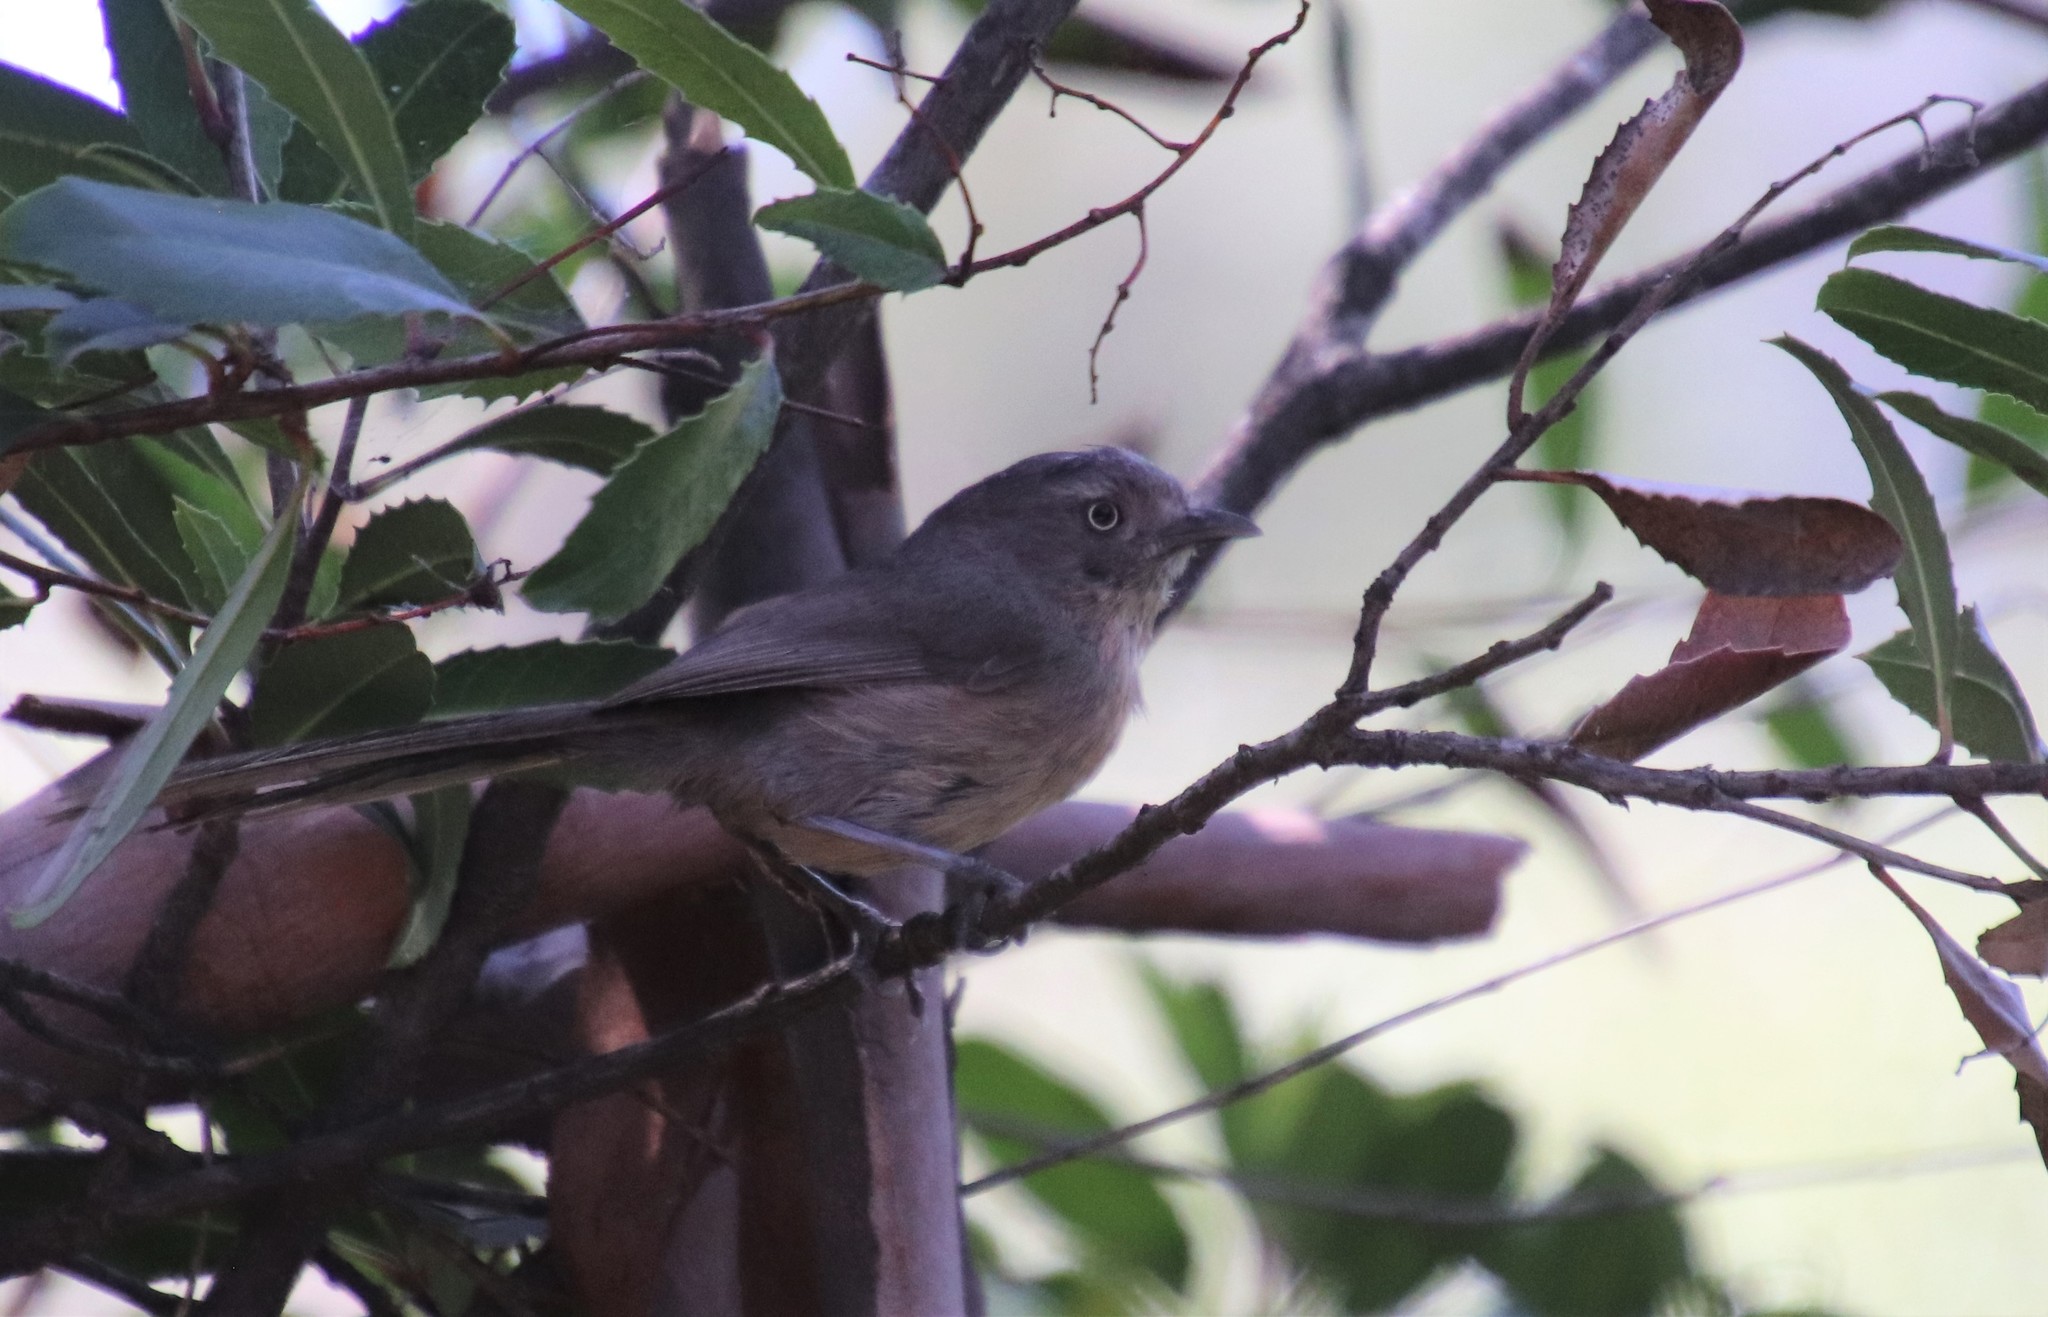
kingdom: Animalia
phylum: Chordata
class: Aves
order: Passeriformes
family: Sylviidae
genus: Chamaea
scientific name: Chamaea fasciata
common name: Wrentit
